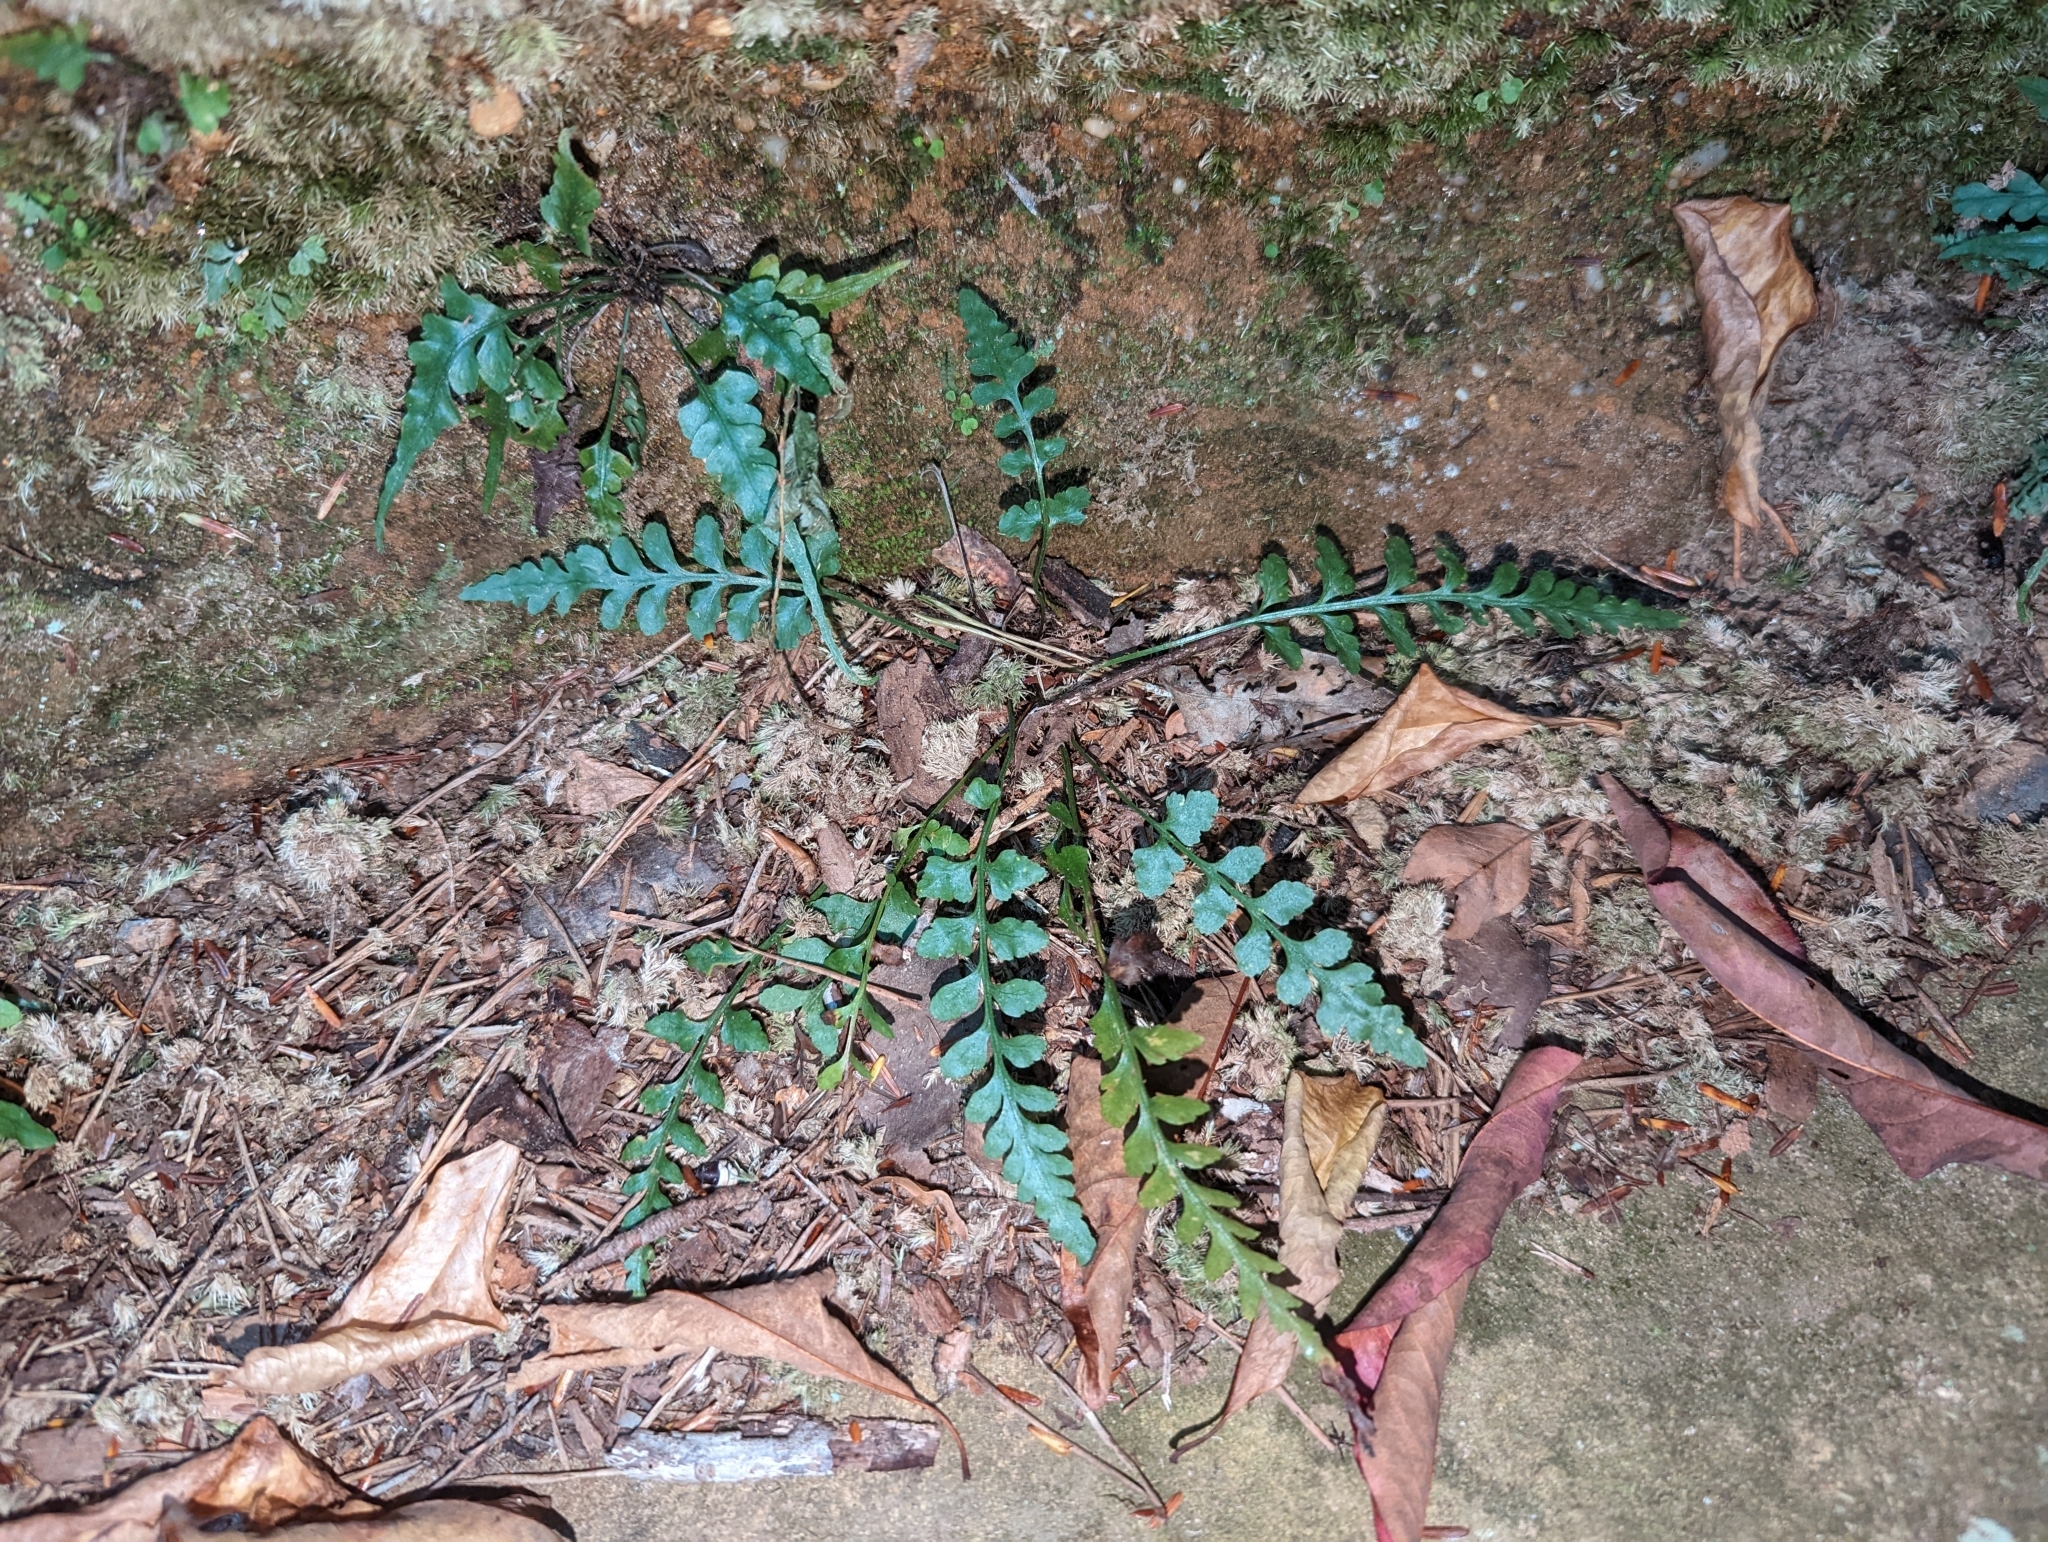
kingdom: Plantae
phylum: Tracheophyta
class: Polypodiopsida
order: Polypodiales
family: Aspleniaceae
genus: Asplenium
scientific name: Asplenium trudellii
